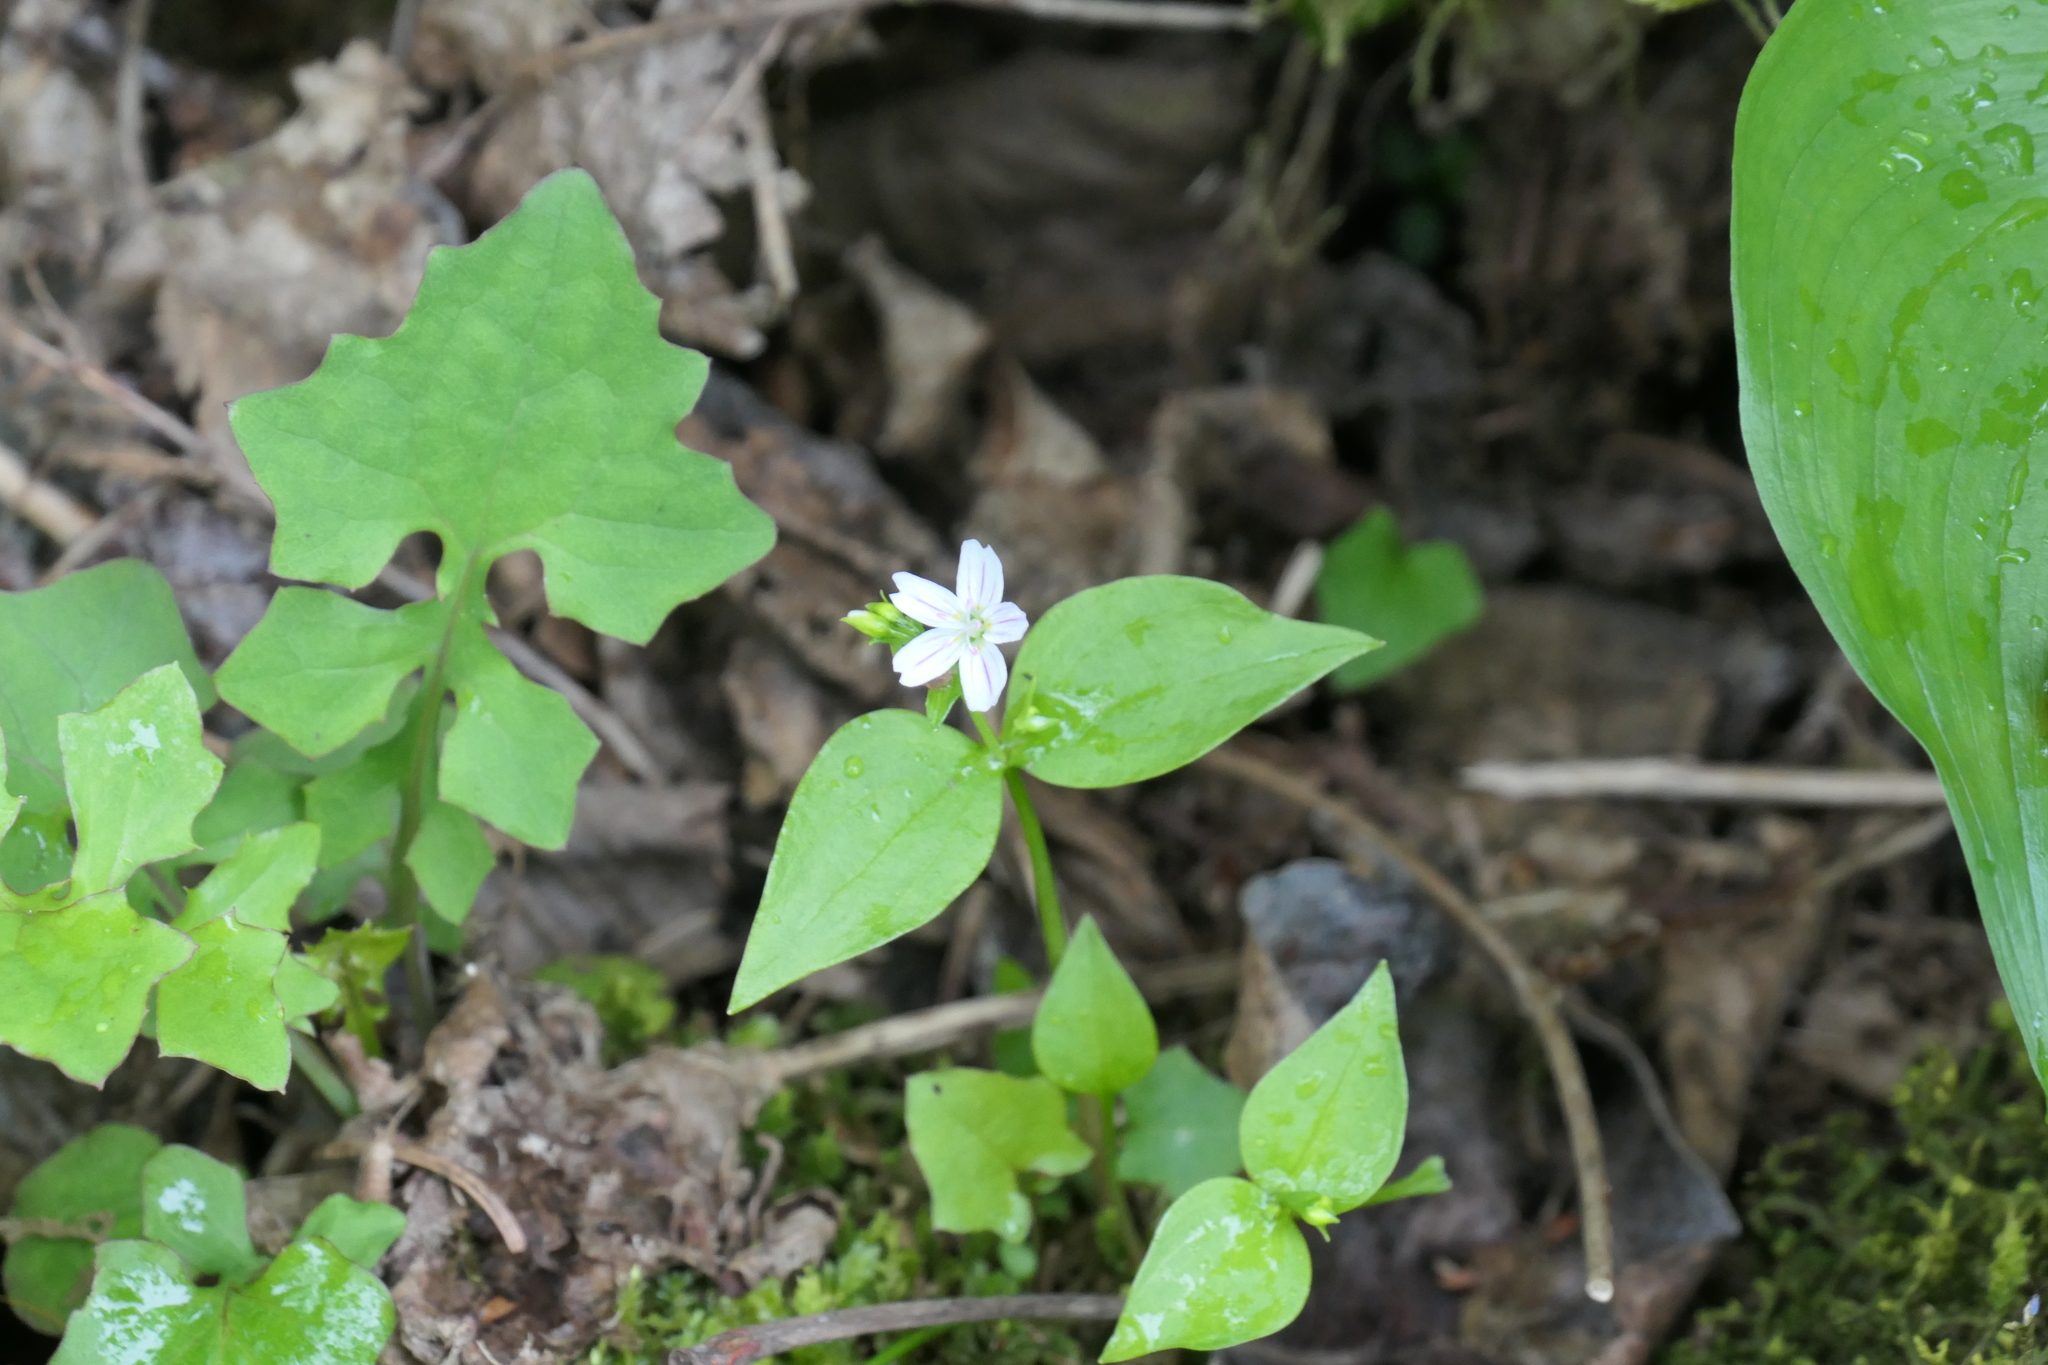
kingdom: Plantae
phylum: Tracheophyta
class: Magnoliopsida
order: Caryophyllales
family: Montiaceae
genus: Claytonia
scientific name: Claytonia sibirica
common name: Pink purslane
